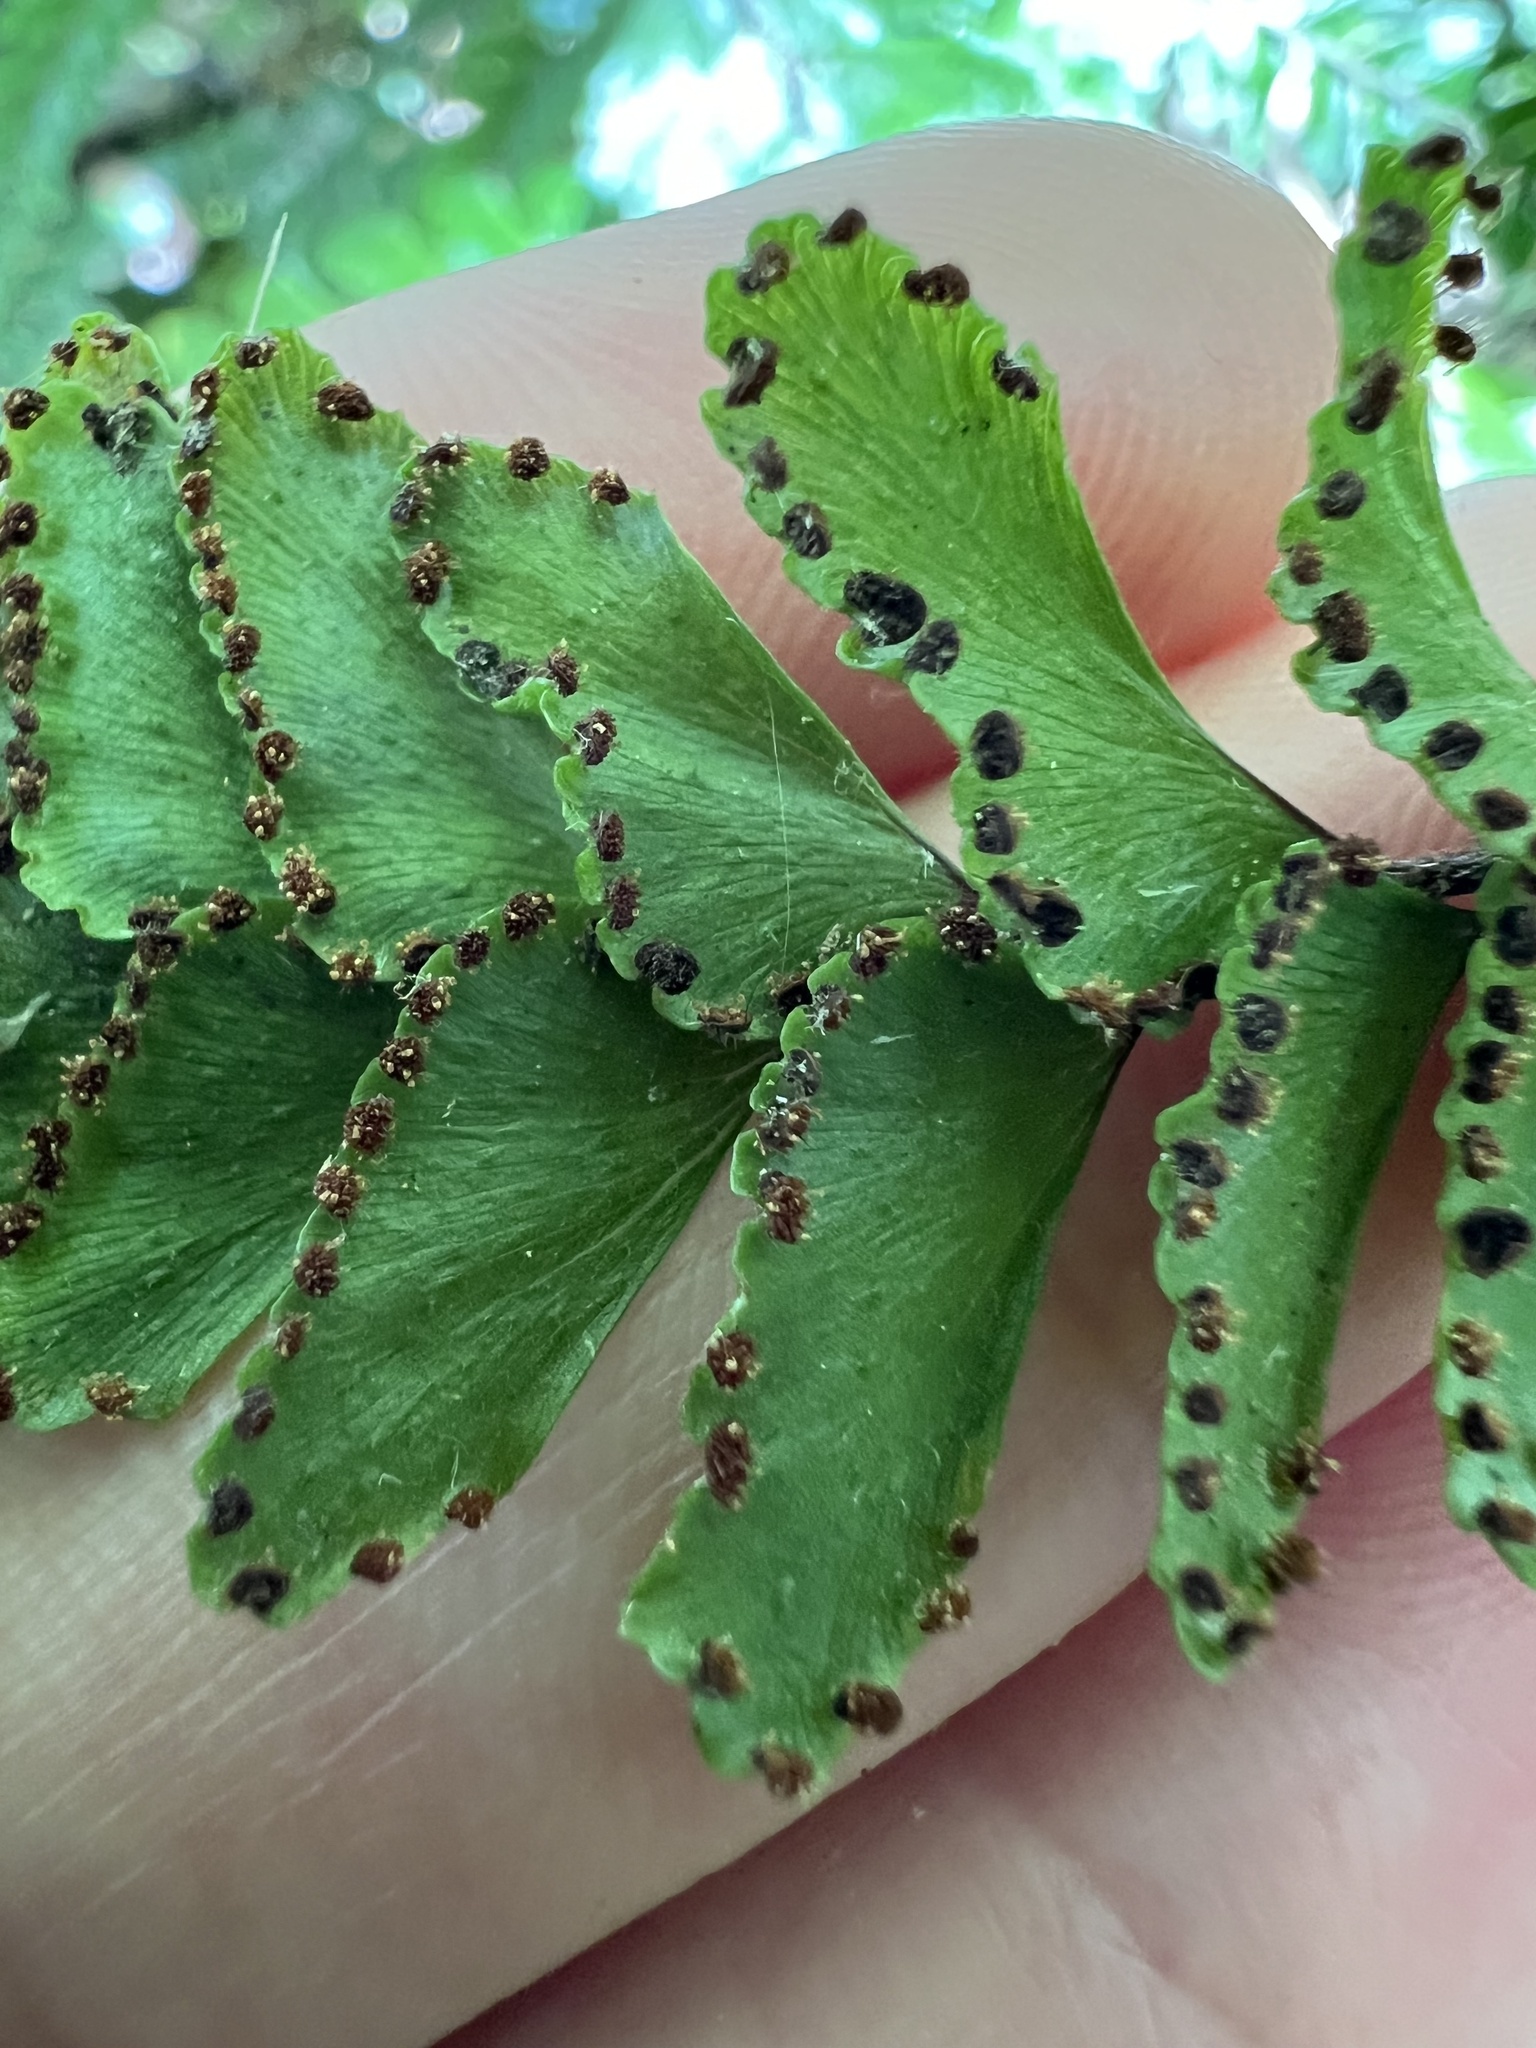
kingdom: Plantae
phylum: Tracheophyta
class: Polypodiopsida
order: Polypodiales
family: Pteridaceae
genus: Adiantum
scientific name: Adiantum hispidulum
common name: Rough maidenhair
